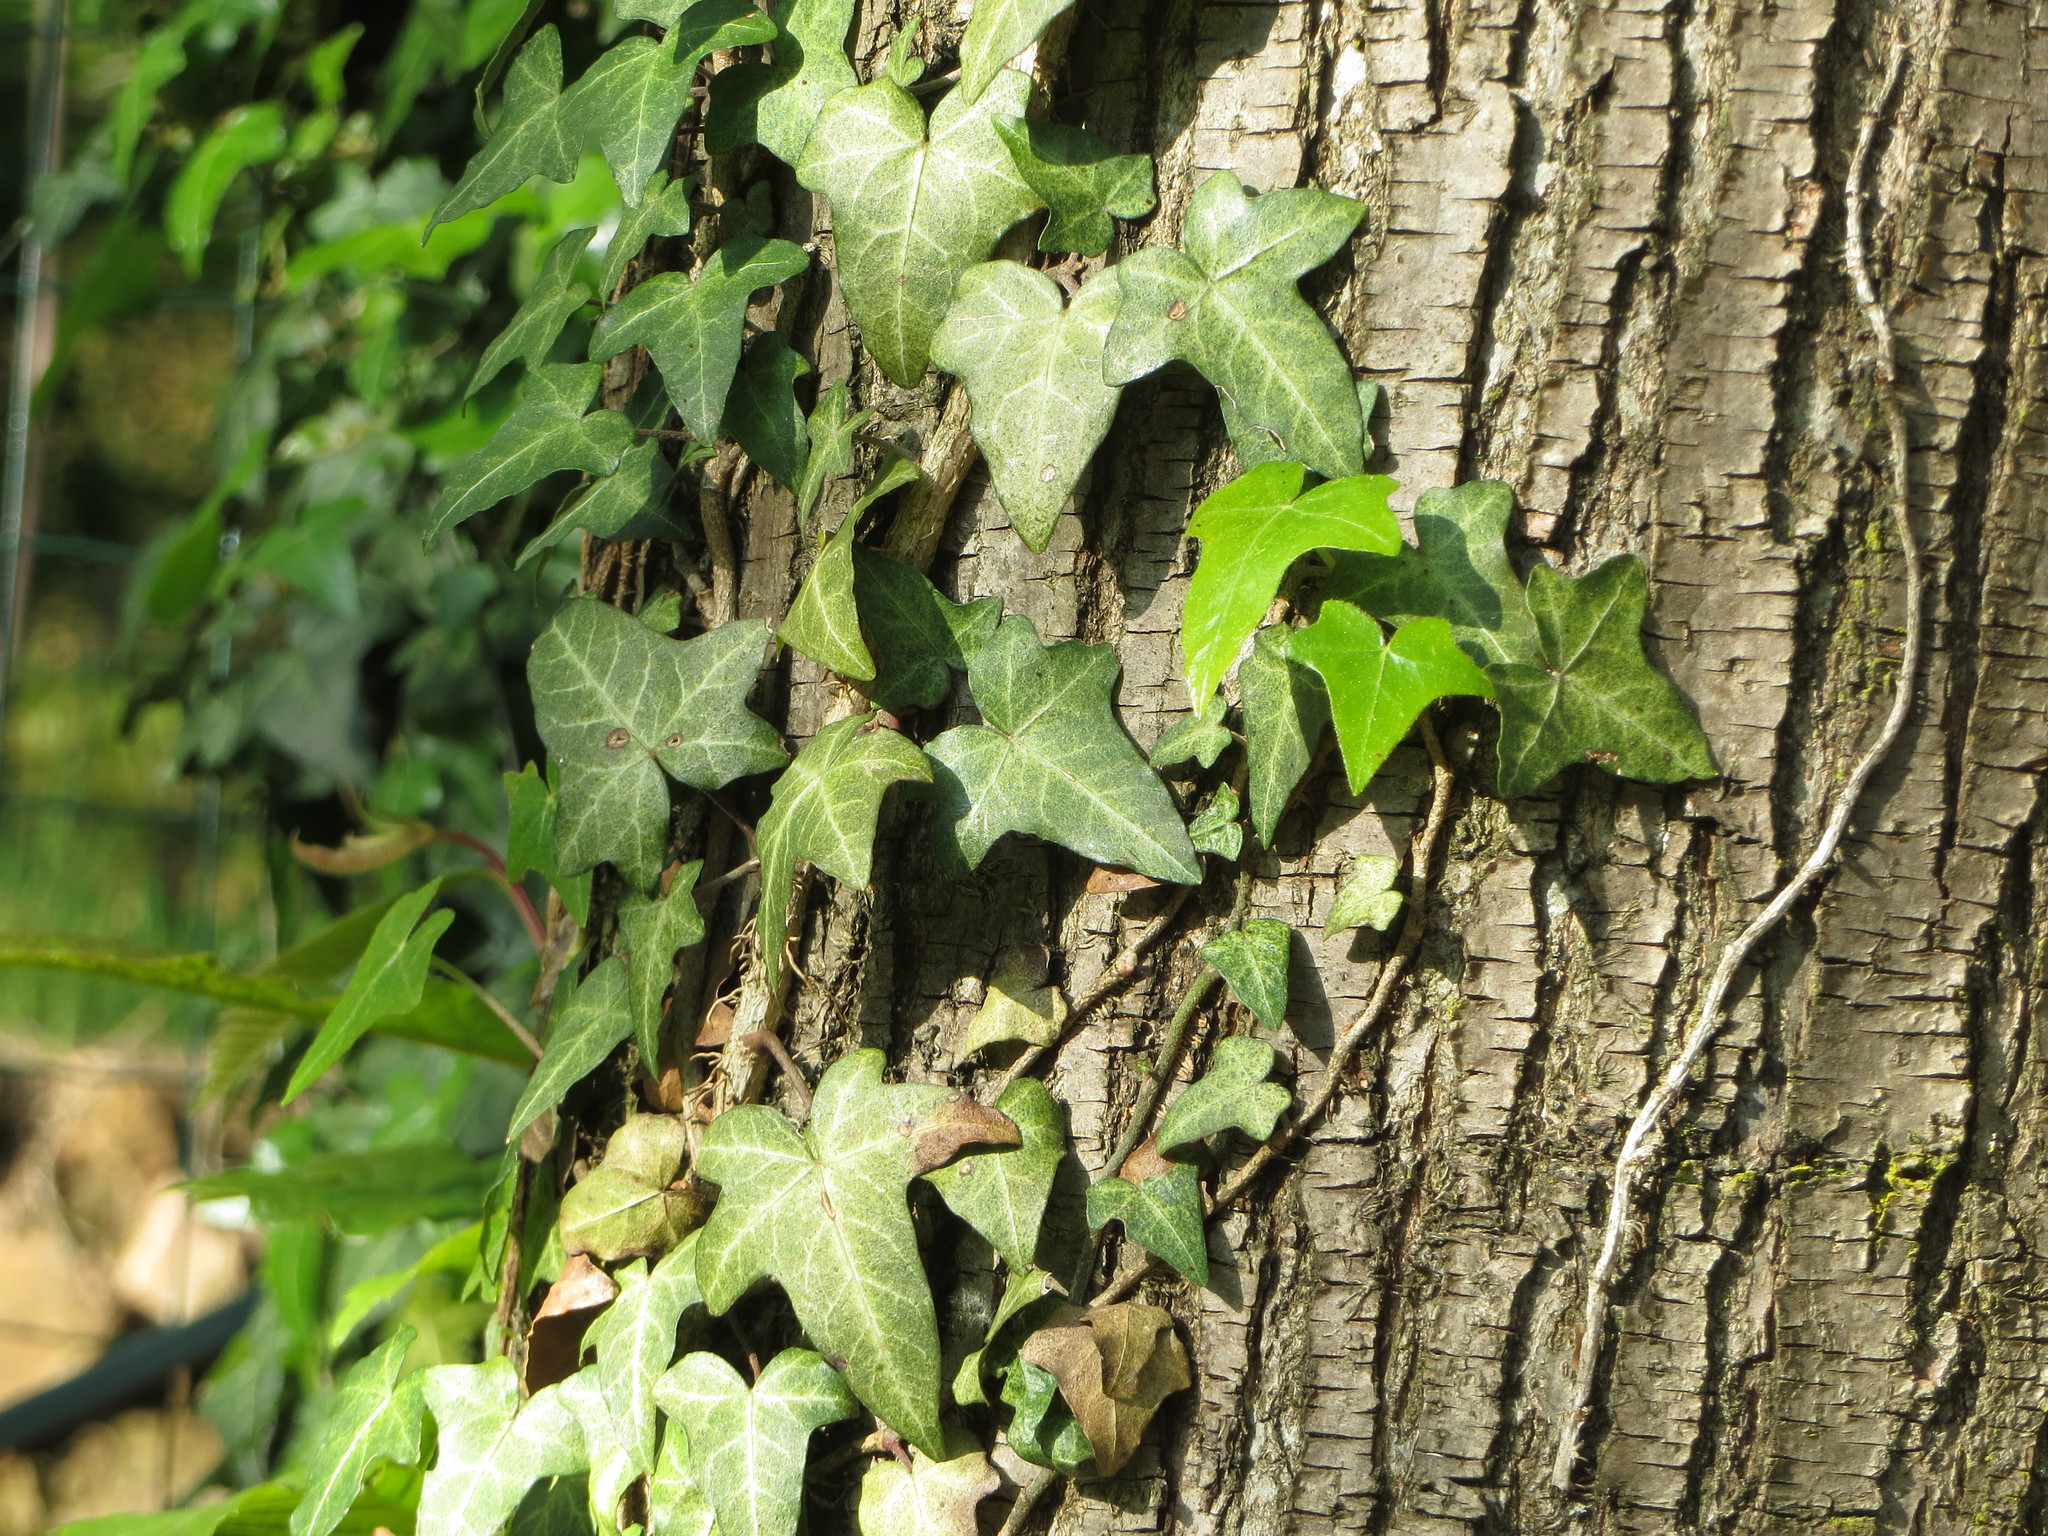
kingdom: Plantae
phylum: Tracheophyta
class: Magnoliopsida
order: Apiales
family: Araliaceae
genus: Hedera
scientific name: Hedera helix
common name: Ivy
